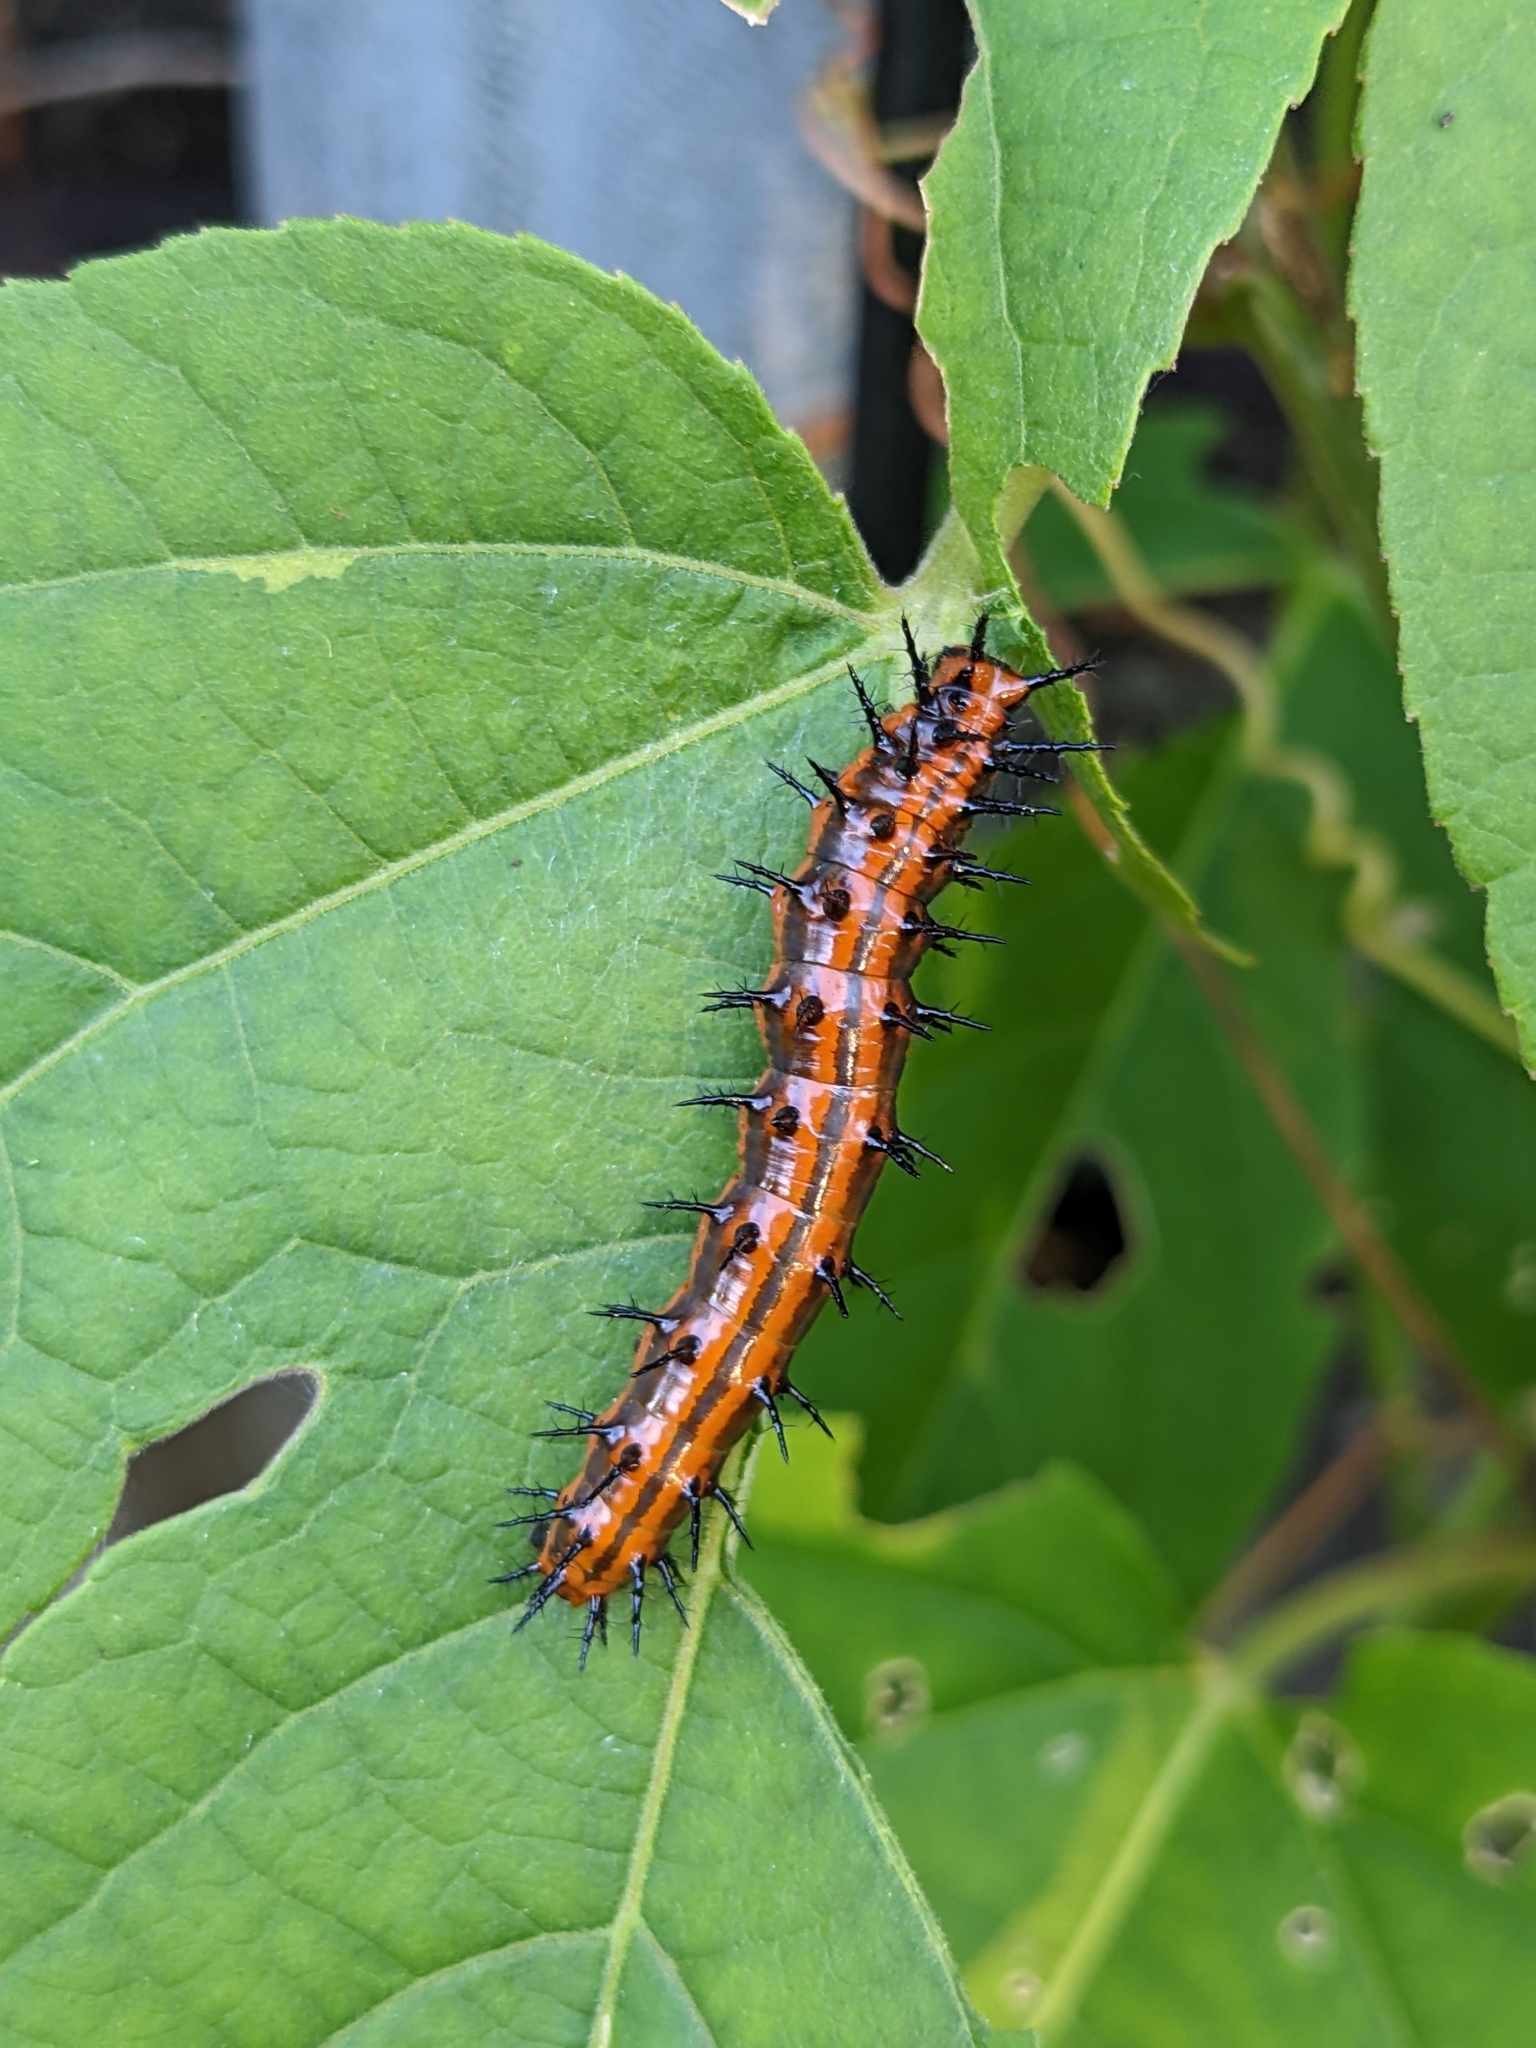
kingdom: Animalia
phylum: Arthropoda
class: Insecta
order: Lepidoptera
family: Nymphalidae
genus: Dione
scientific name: Dione vanillae
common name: Gulf fritillary
